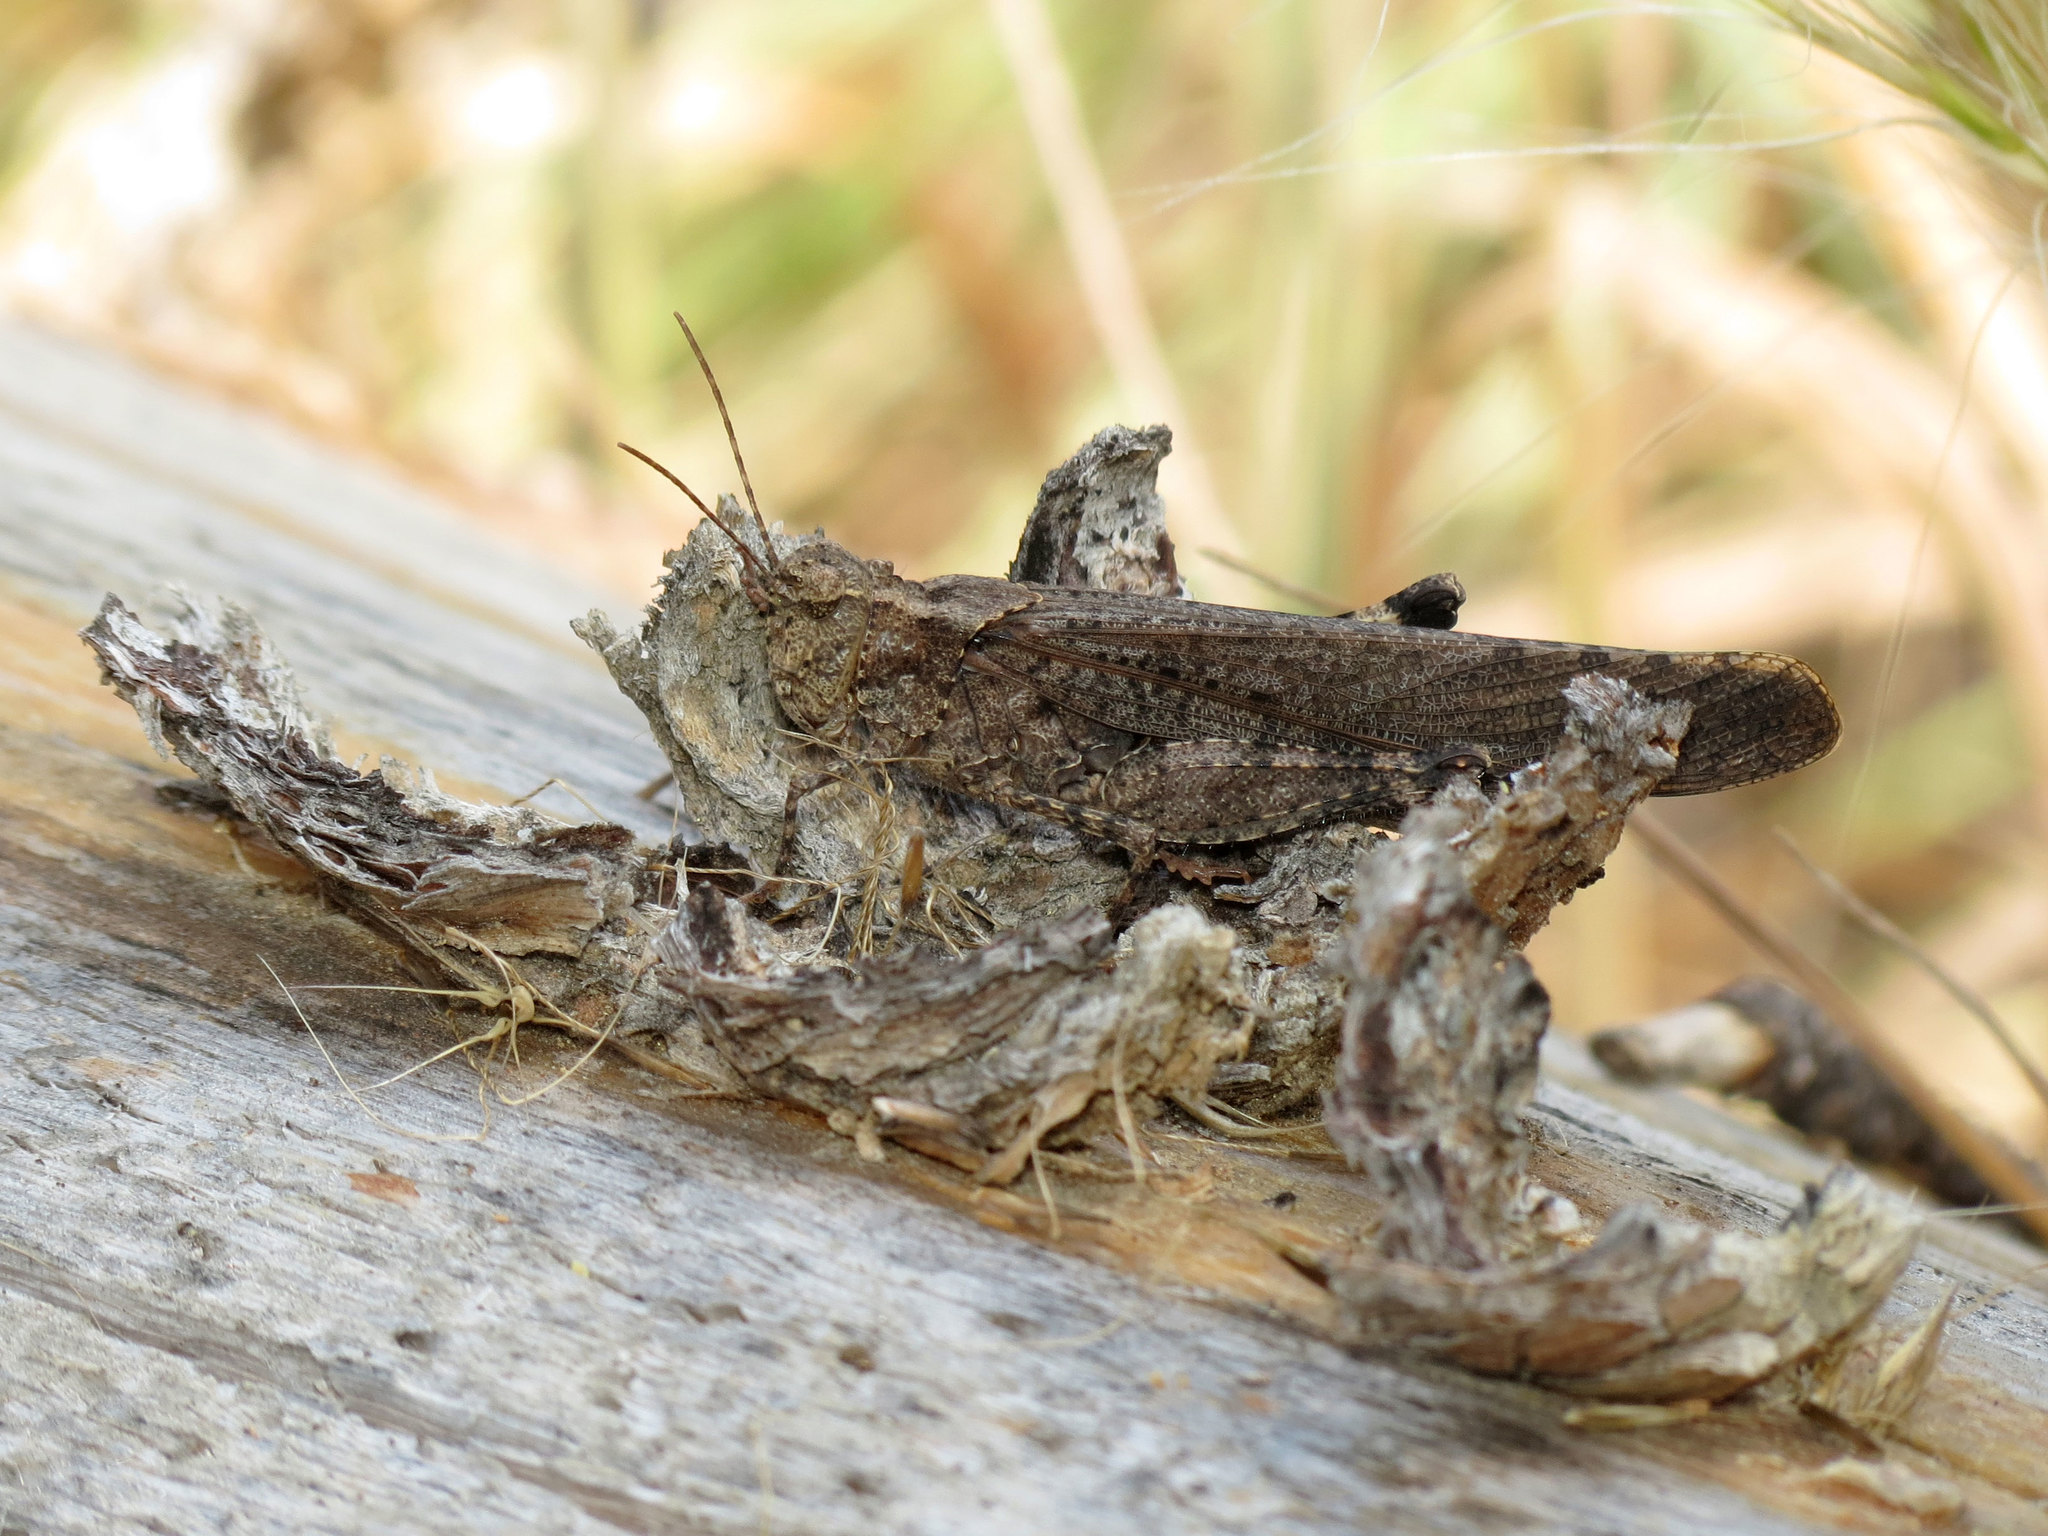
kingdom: Animalia
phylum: Arthropoda
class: Insecta
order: Orthoptera
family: Acrididae
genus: Trimerotropis
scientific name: Trimerotropis verruculata
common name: Crackling forest grasshopper
